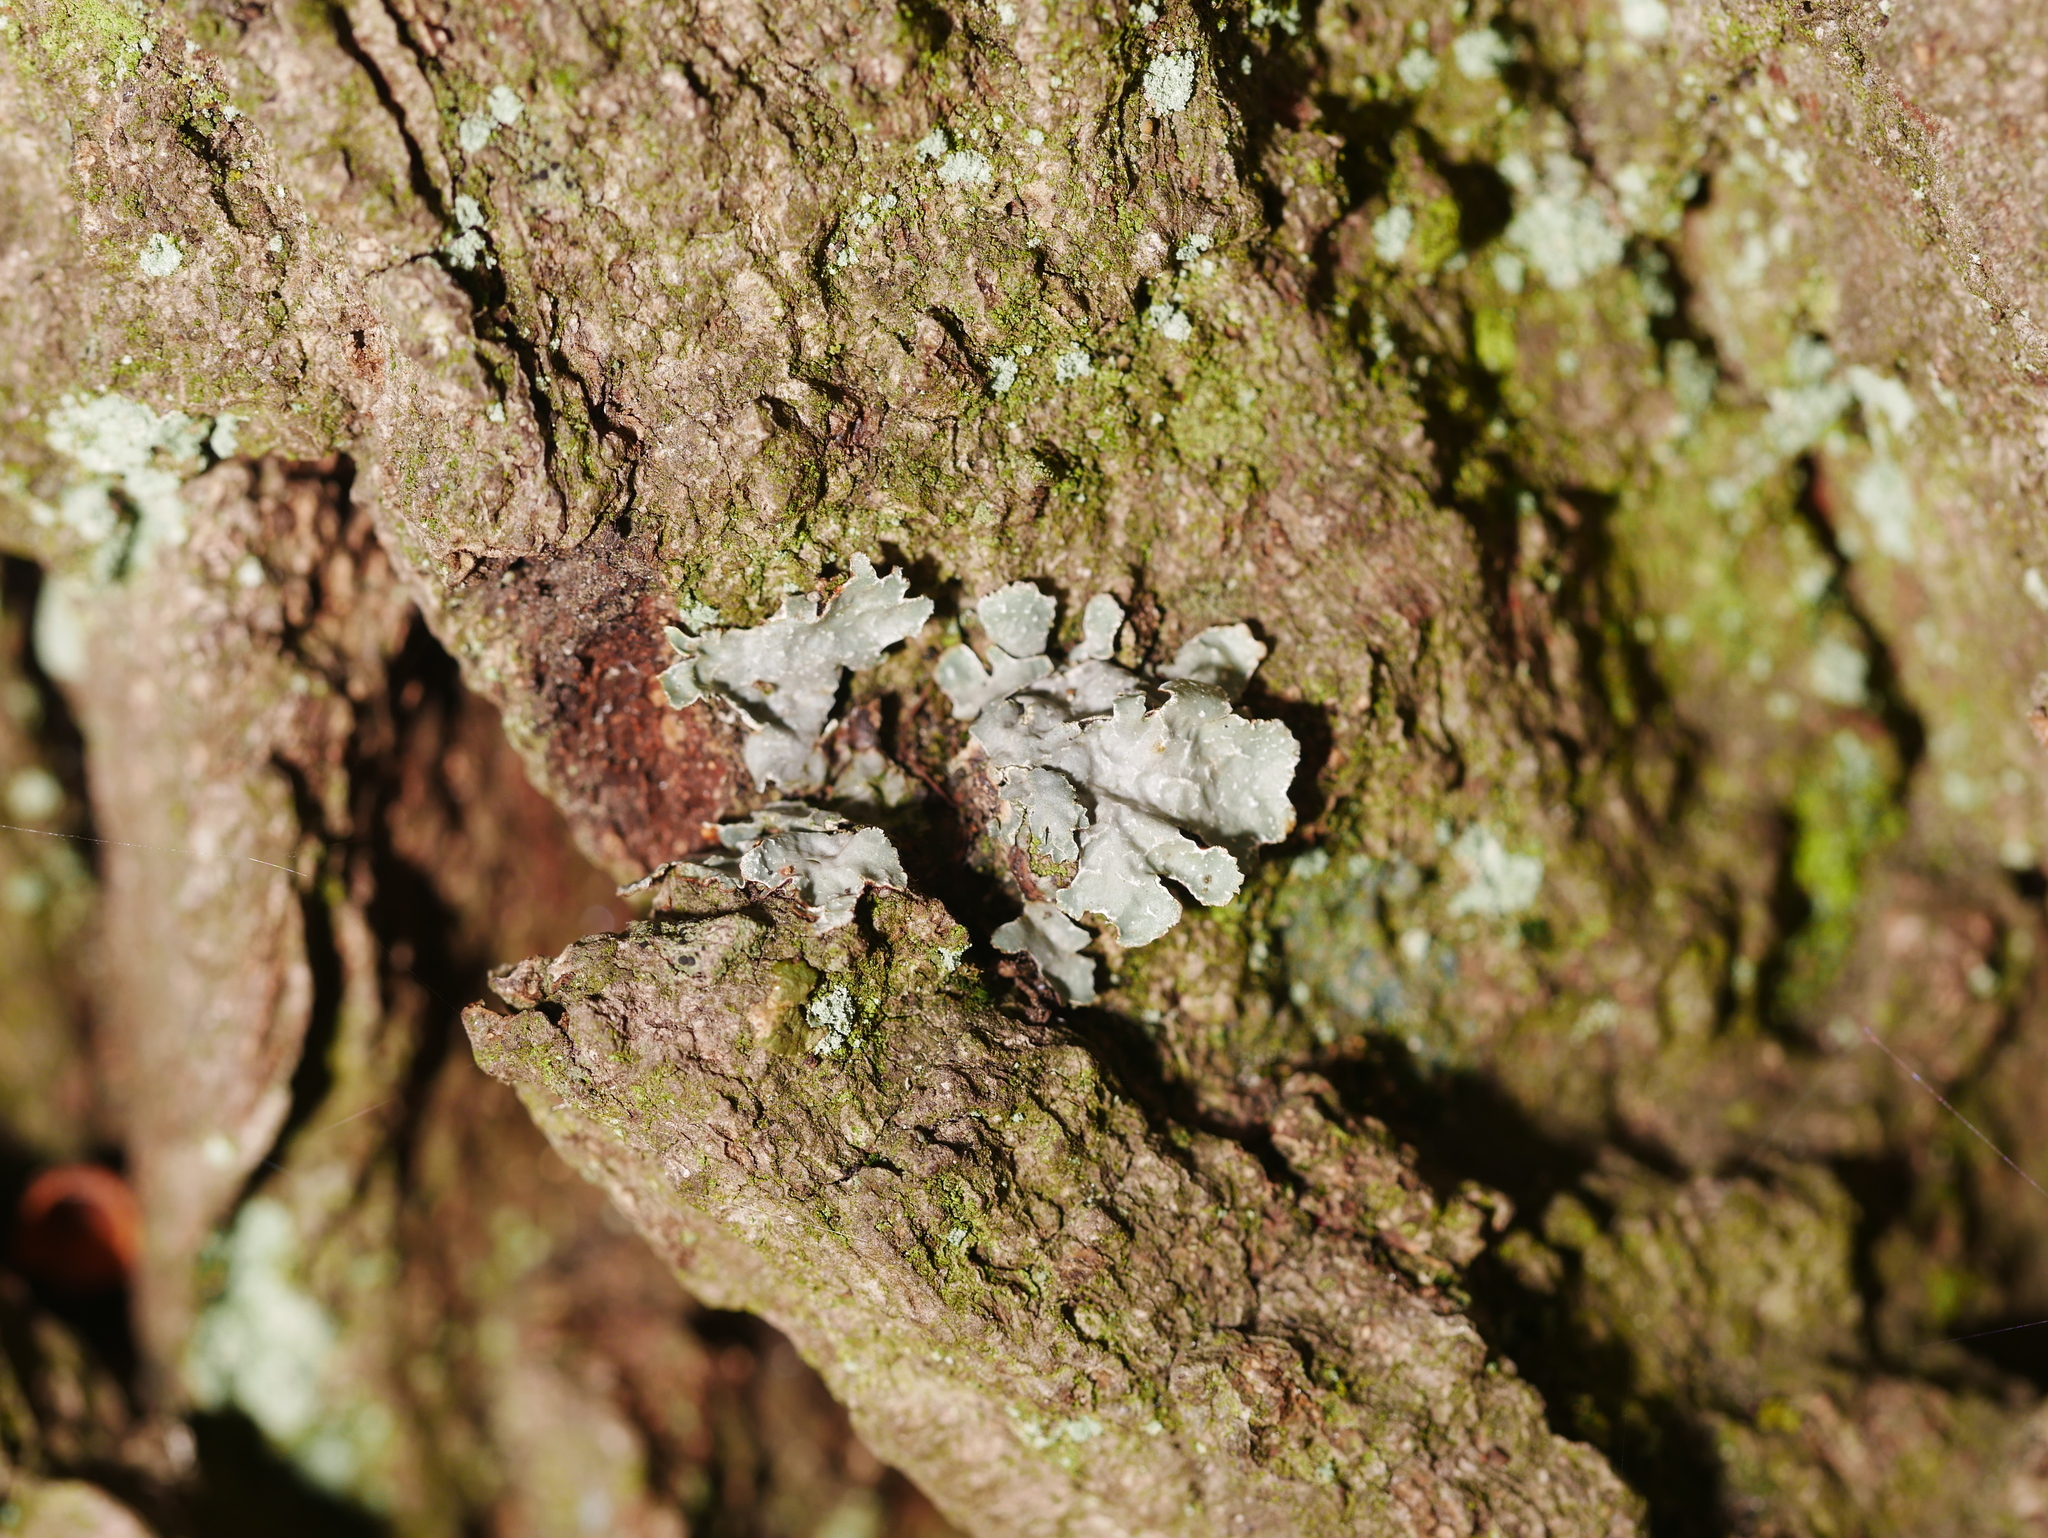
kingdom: Fungi
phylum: Ascomycota
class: Lecanoromycetes
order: Lecanorales
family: Parmeliaceae
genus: Parmelia
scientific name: Parmelia sulcata
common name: Netted shield lichen
